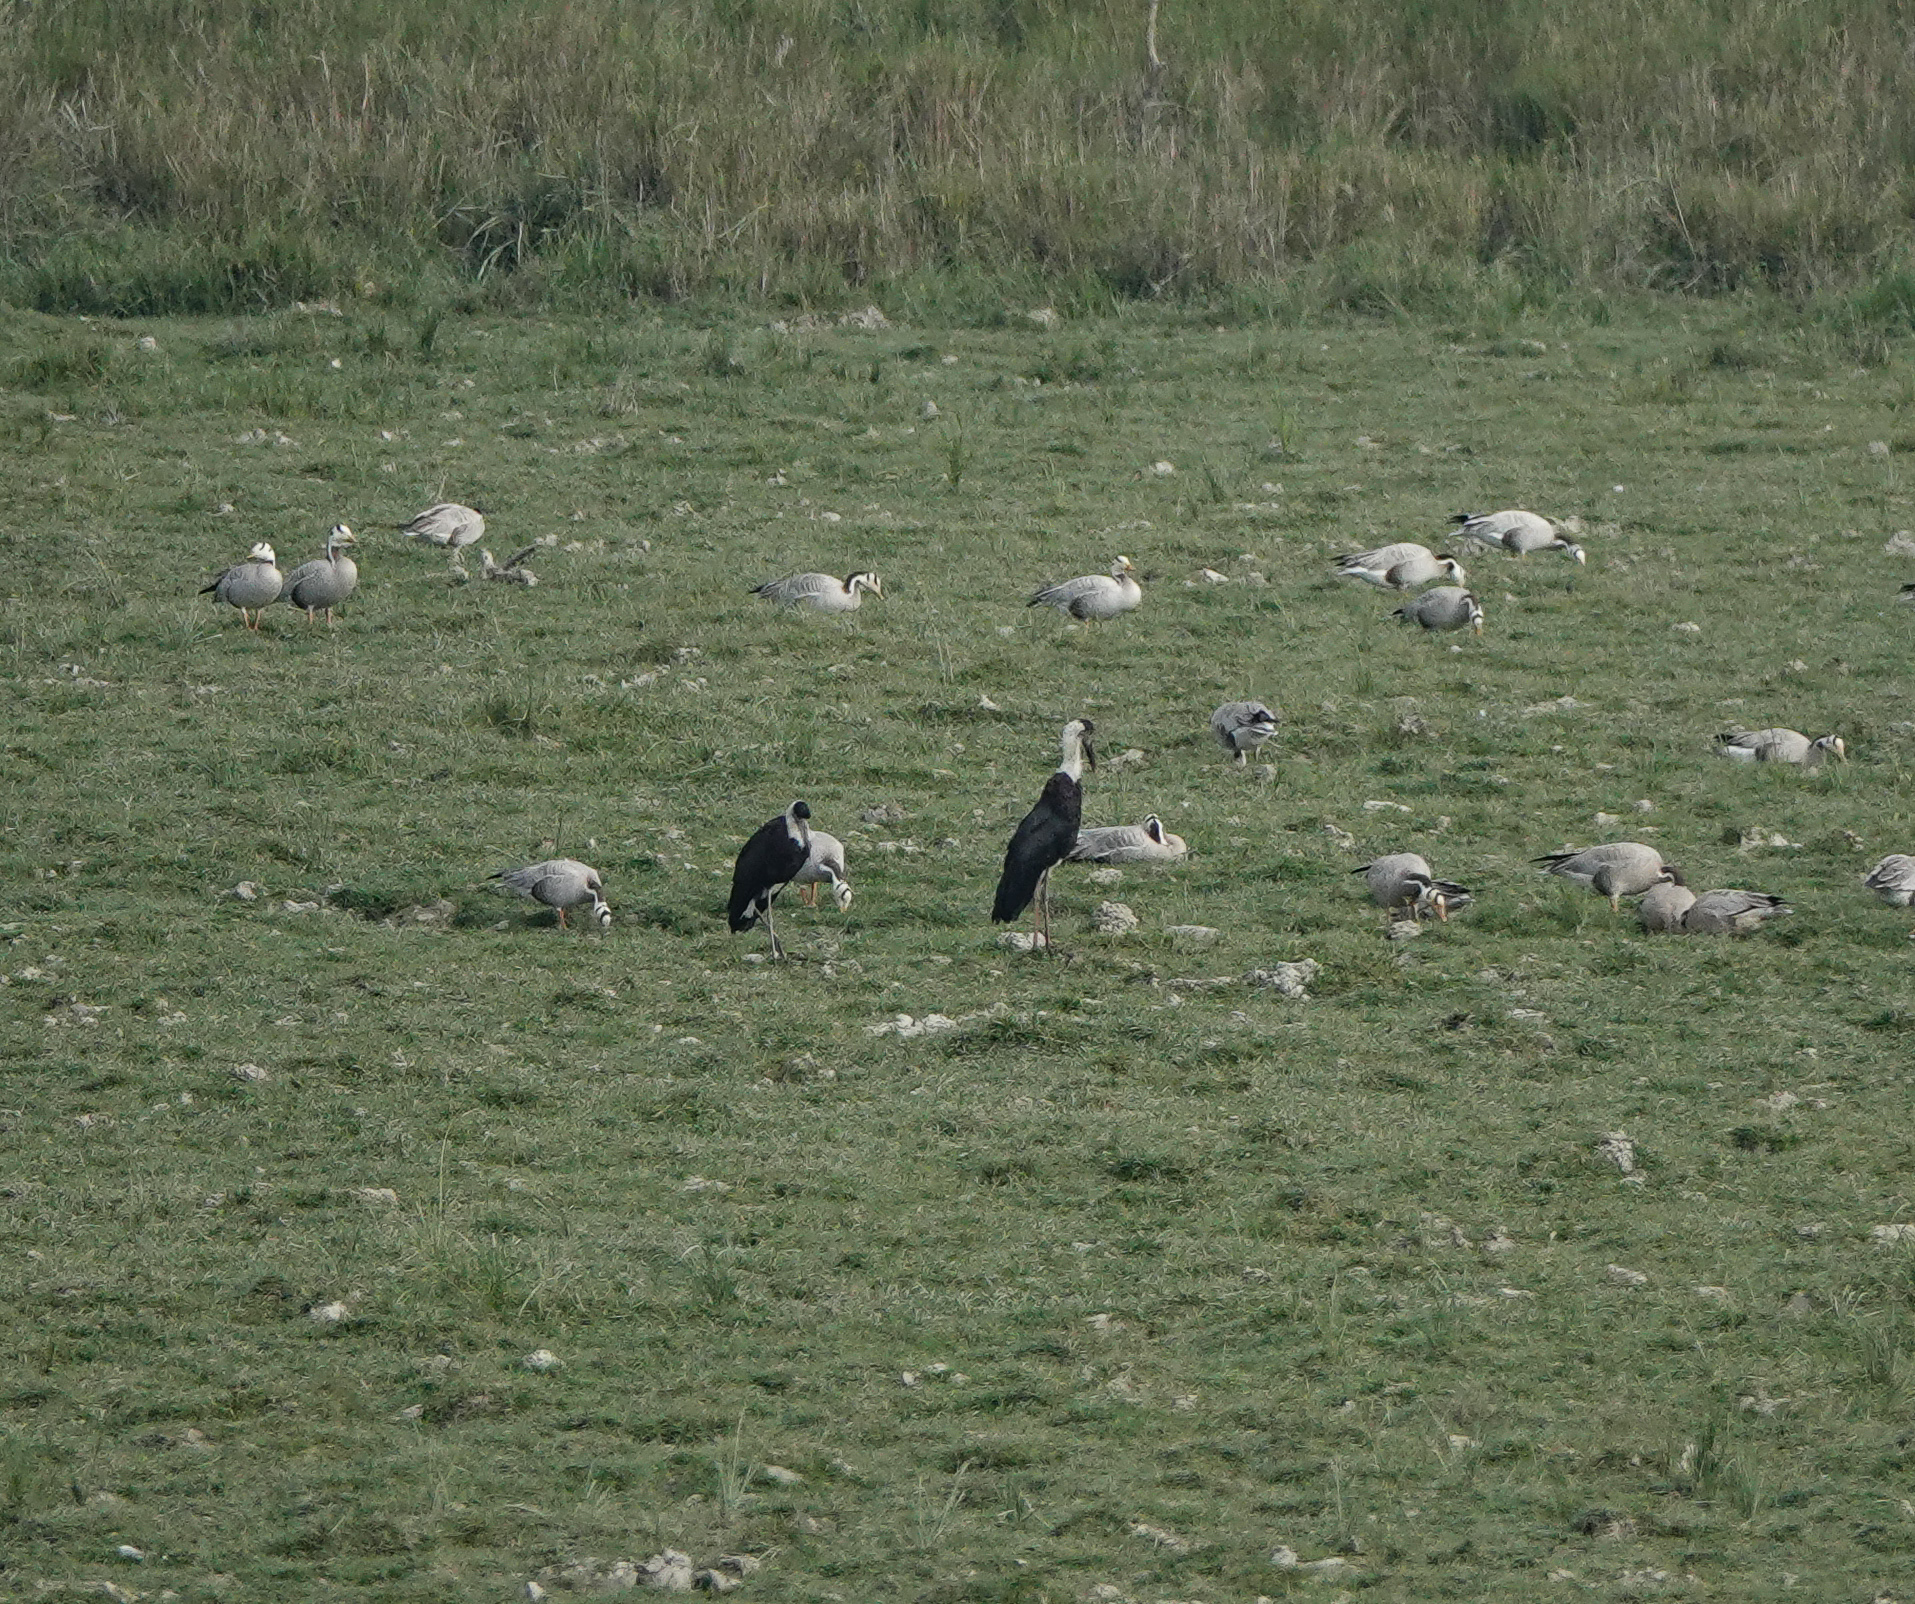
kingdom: Animalia
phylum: Chordata
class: Aves
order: Ciconiiformes
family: Ciconiidae
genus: Ciconia
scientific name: Ciconia episcopus
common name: Woolly-necked stork
